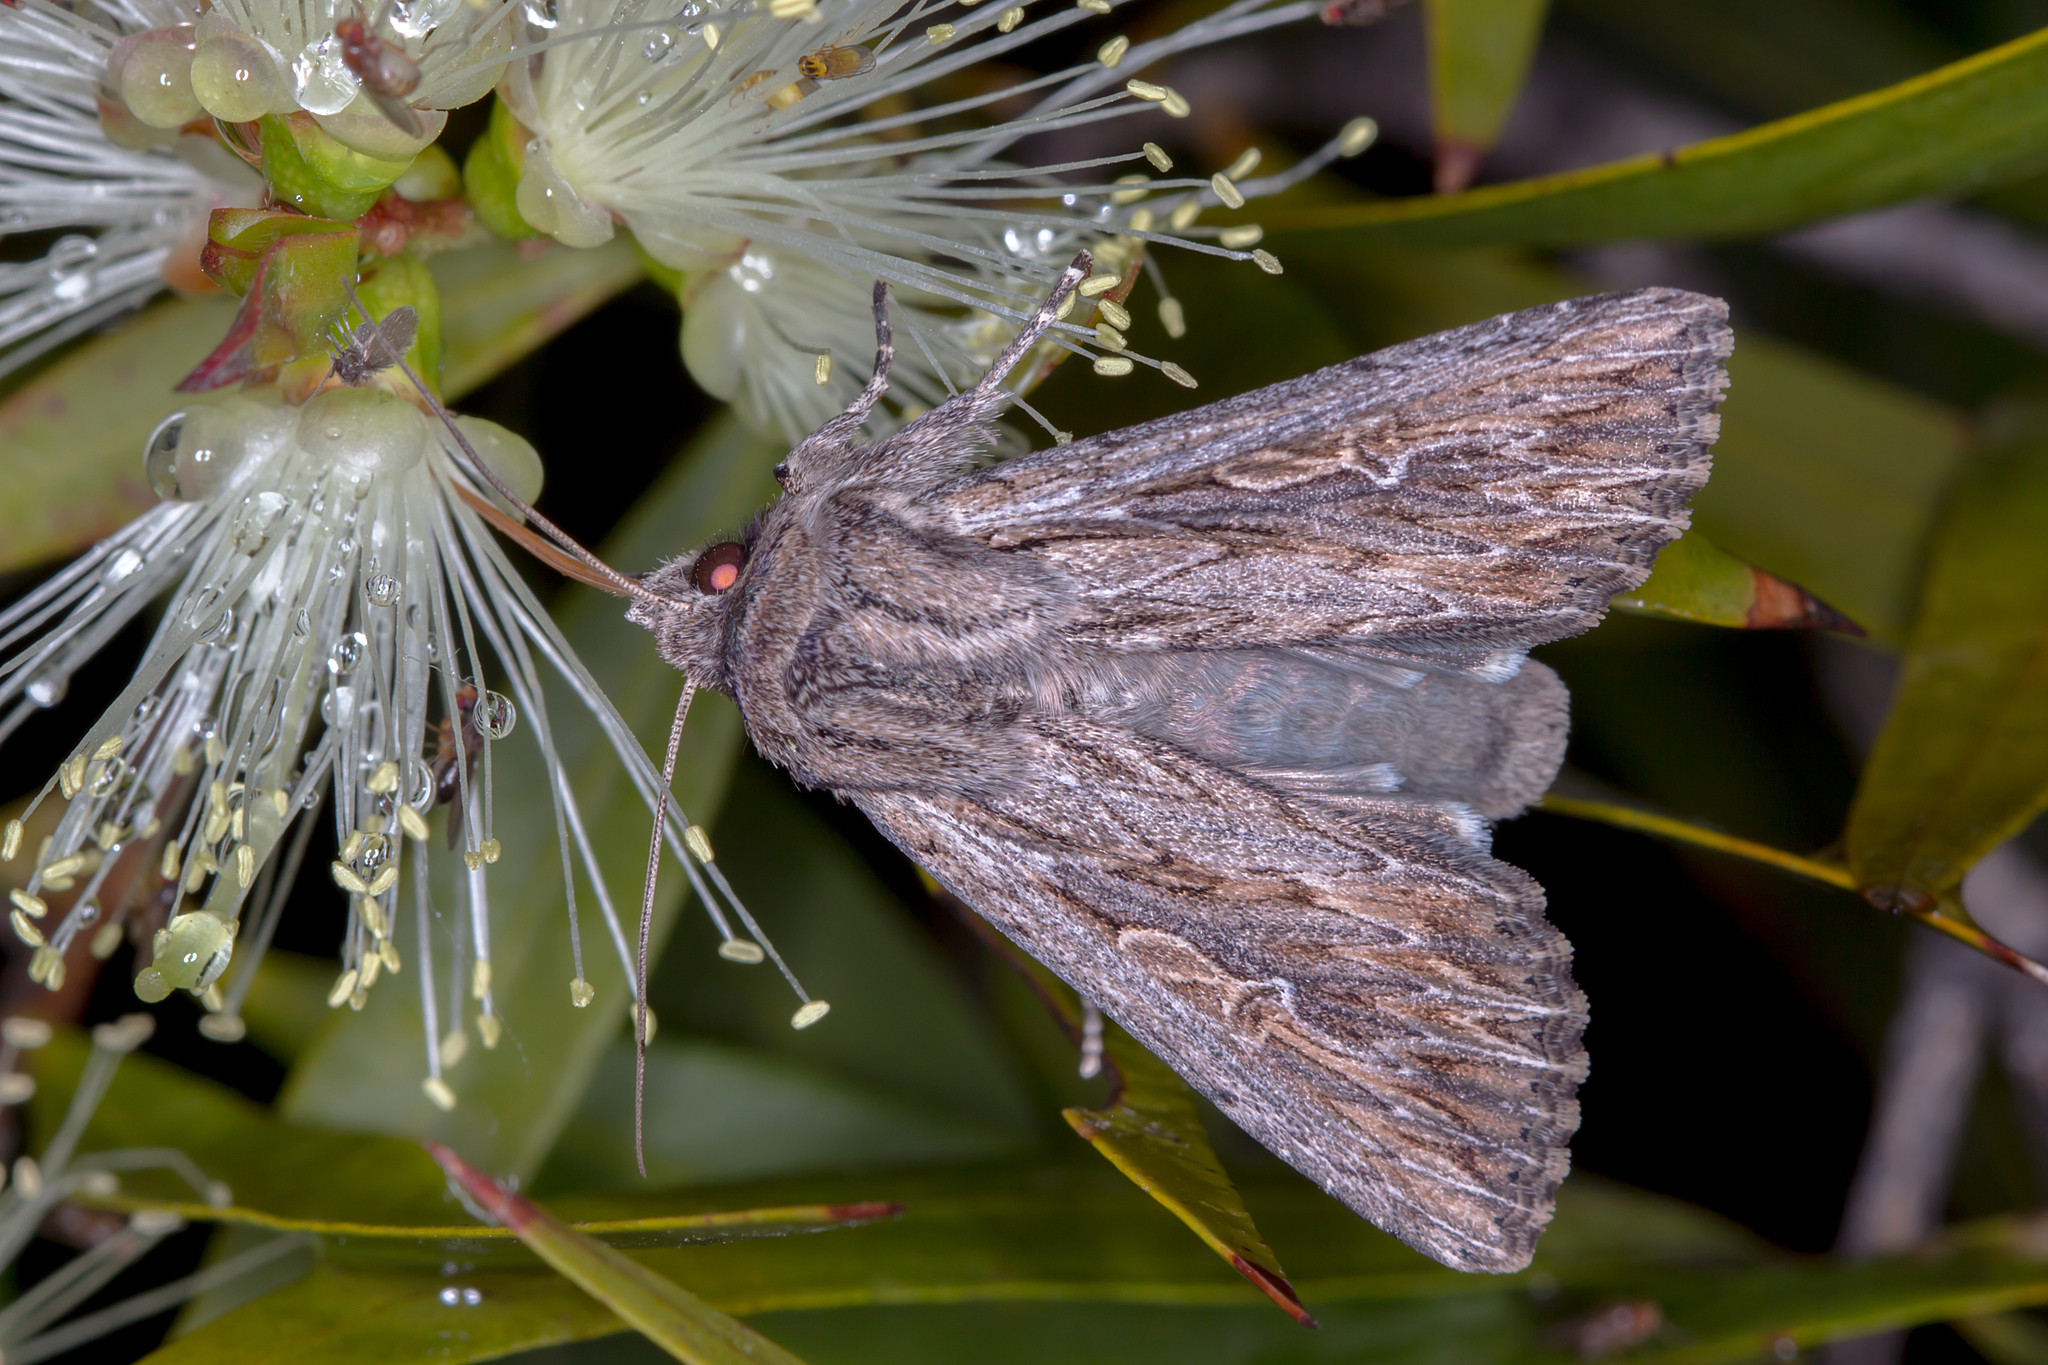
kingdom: Animalia
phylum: Arthropoda
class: Insecta
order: Lepidoptera
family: Noctuidae
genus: Persectania
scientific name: Persectania ewingii
